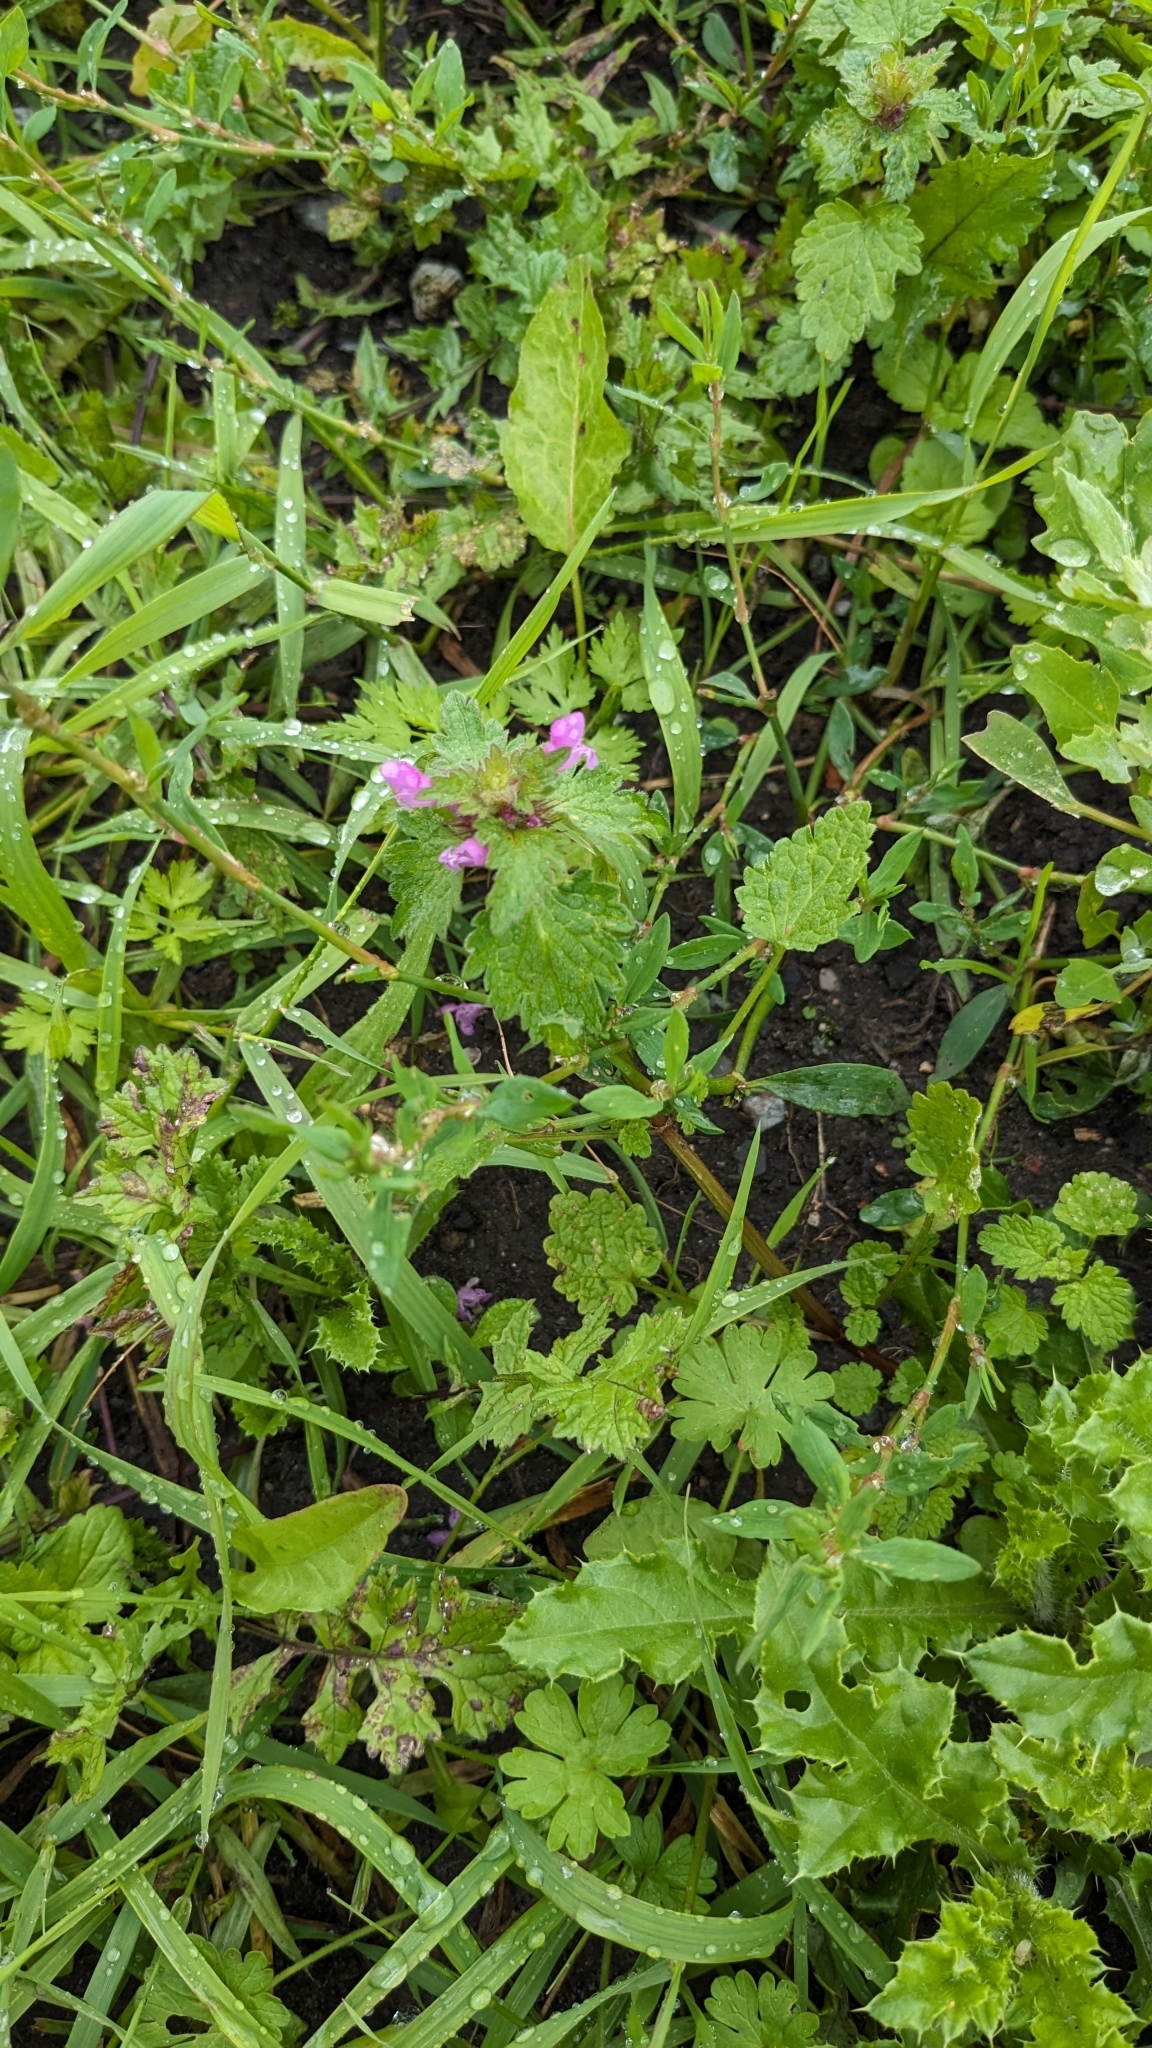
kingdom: Plantae
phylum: Tracheophyta
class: Magnoliopsida
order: Lamiales
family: Lamiaceae
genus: Lamium
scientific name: Lamium hybridum
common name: Cut-leaved dead-nettle
